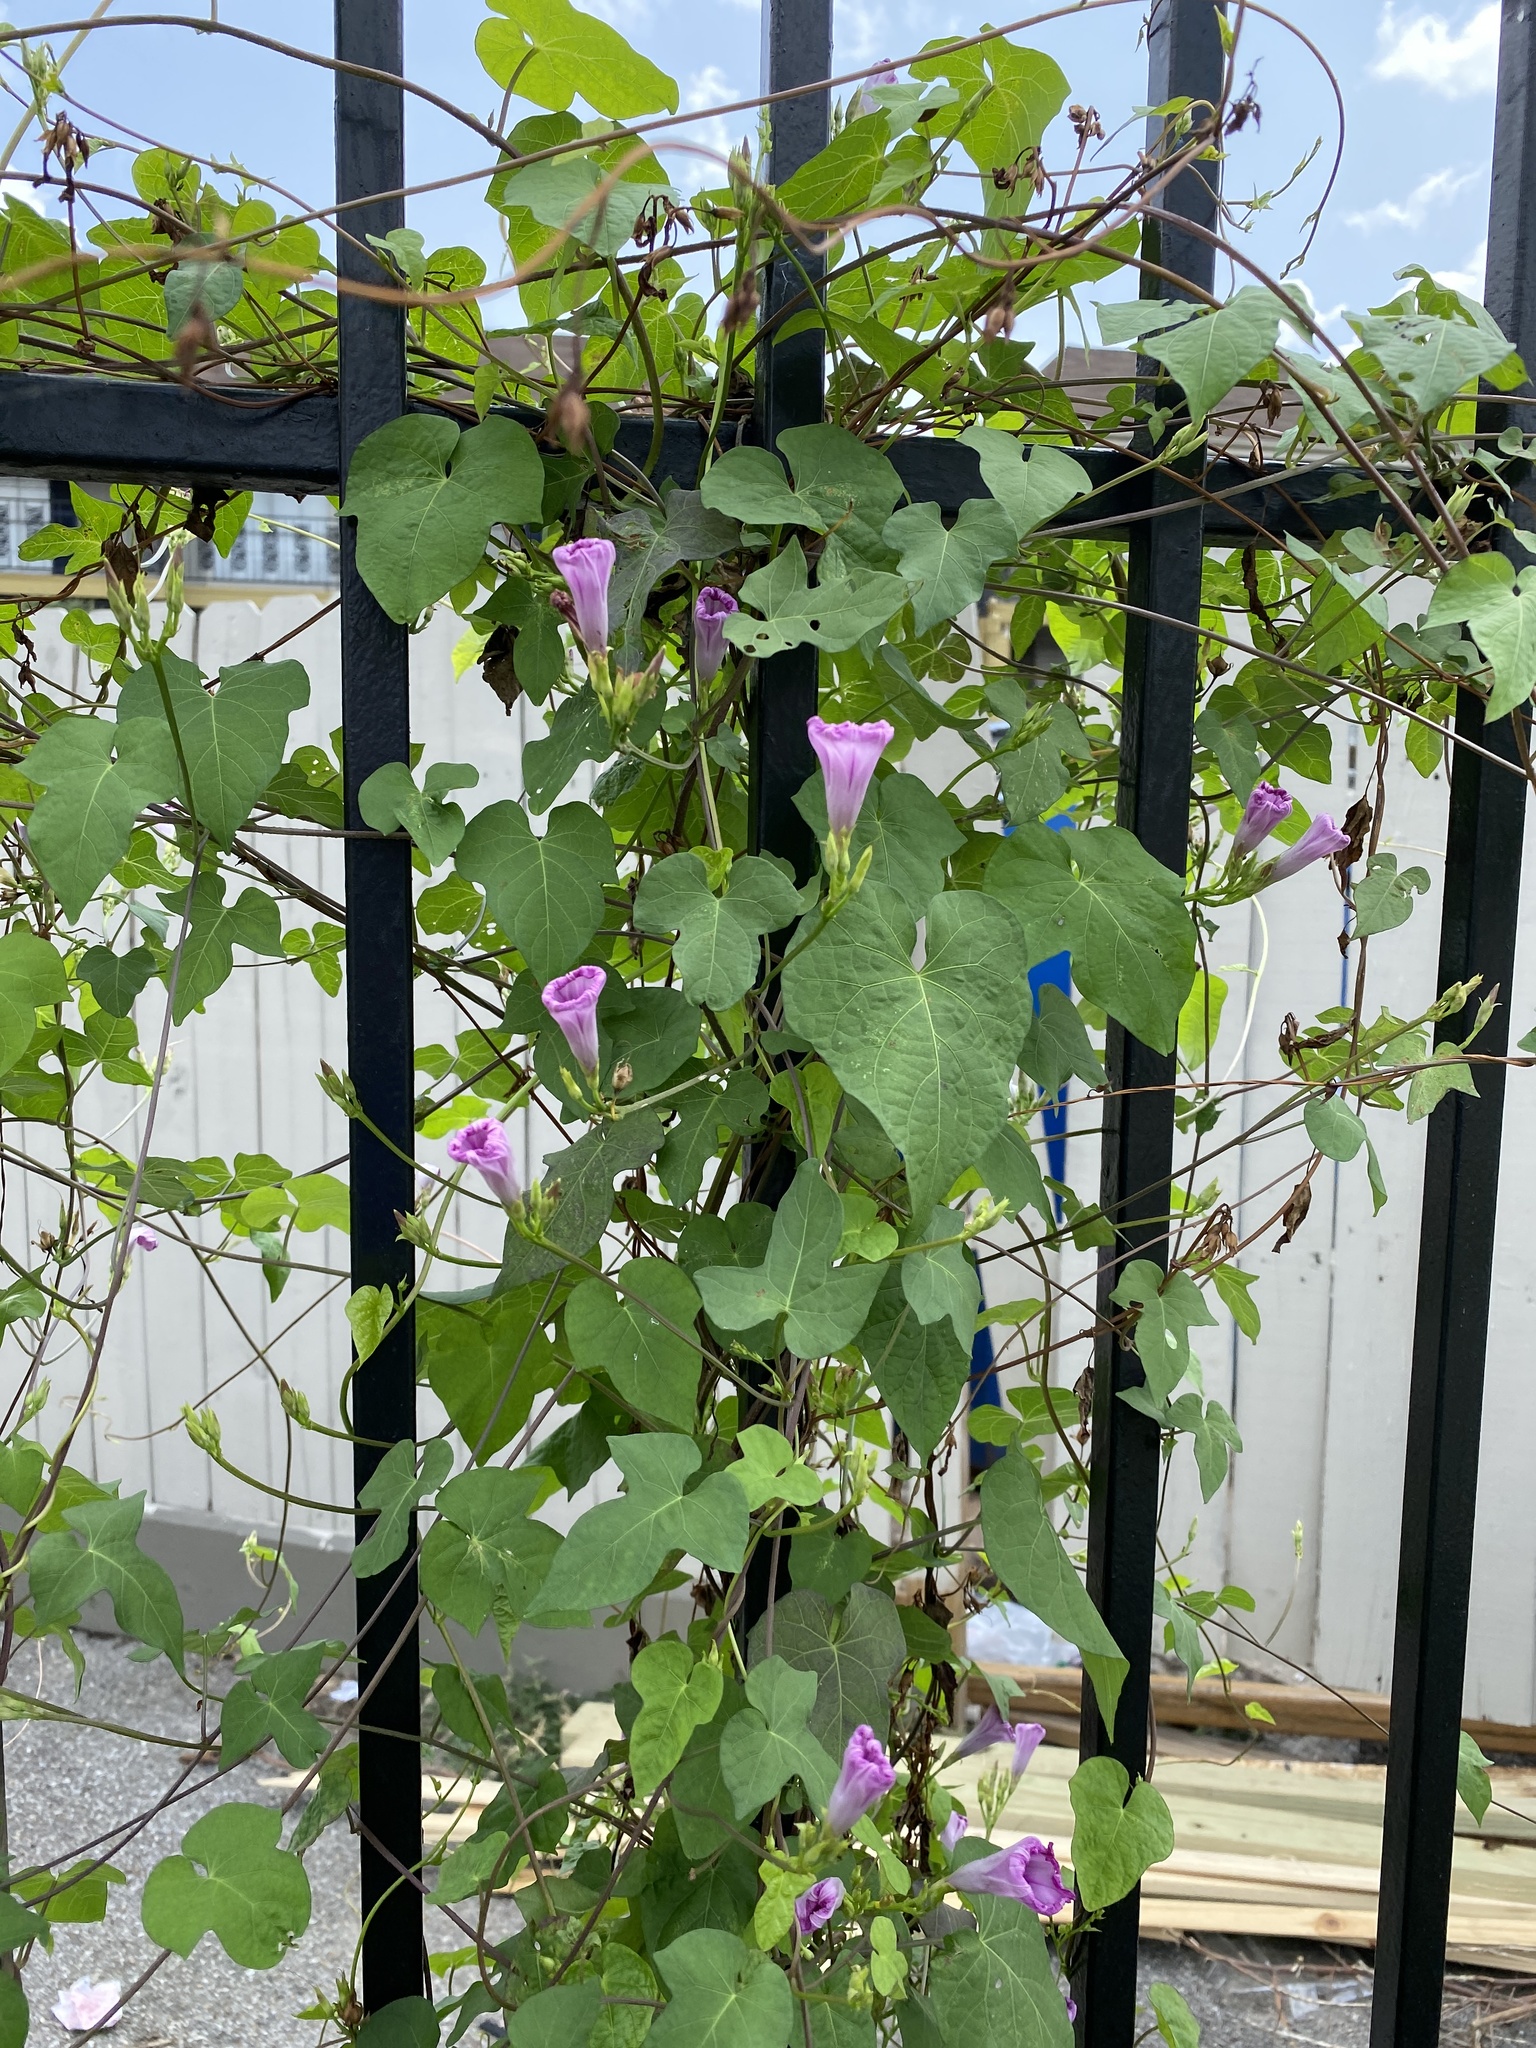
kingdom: Plantae
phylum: Tracheophyta
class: Magnoliopsida
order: Solanales
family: Convolvulaceae
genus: Ipomoea
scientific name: Ipomoea cordatotriloba
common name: Cotton morning glory
